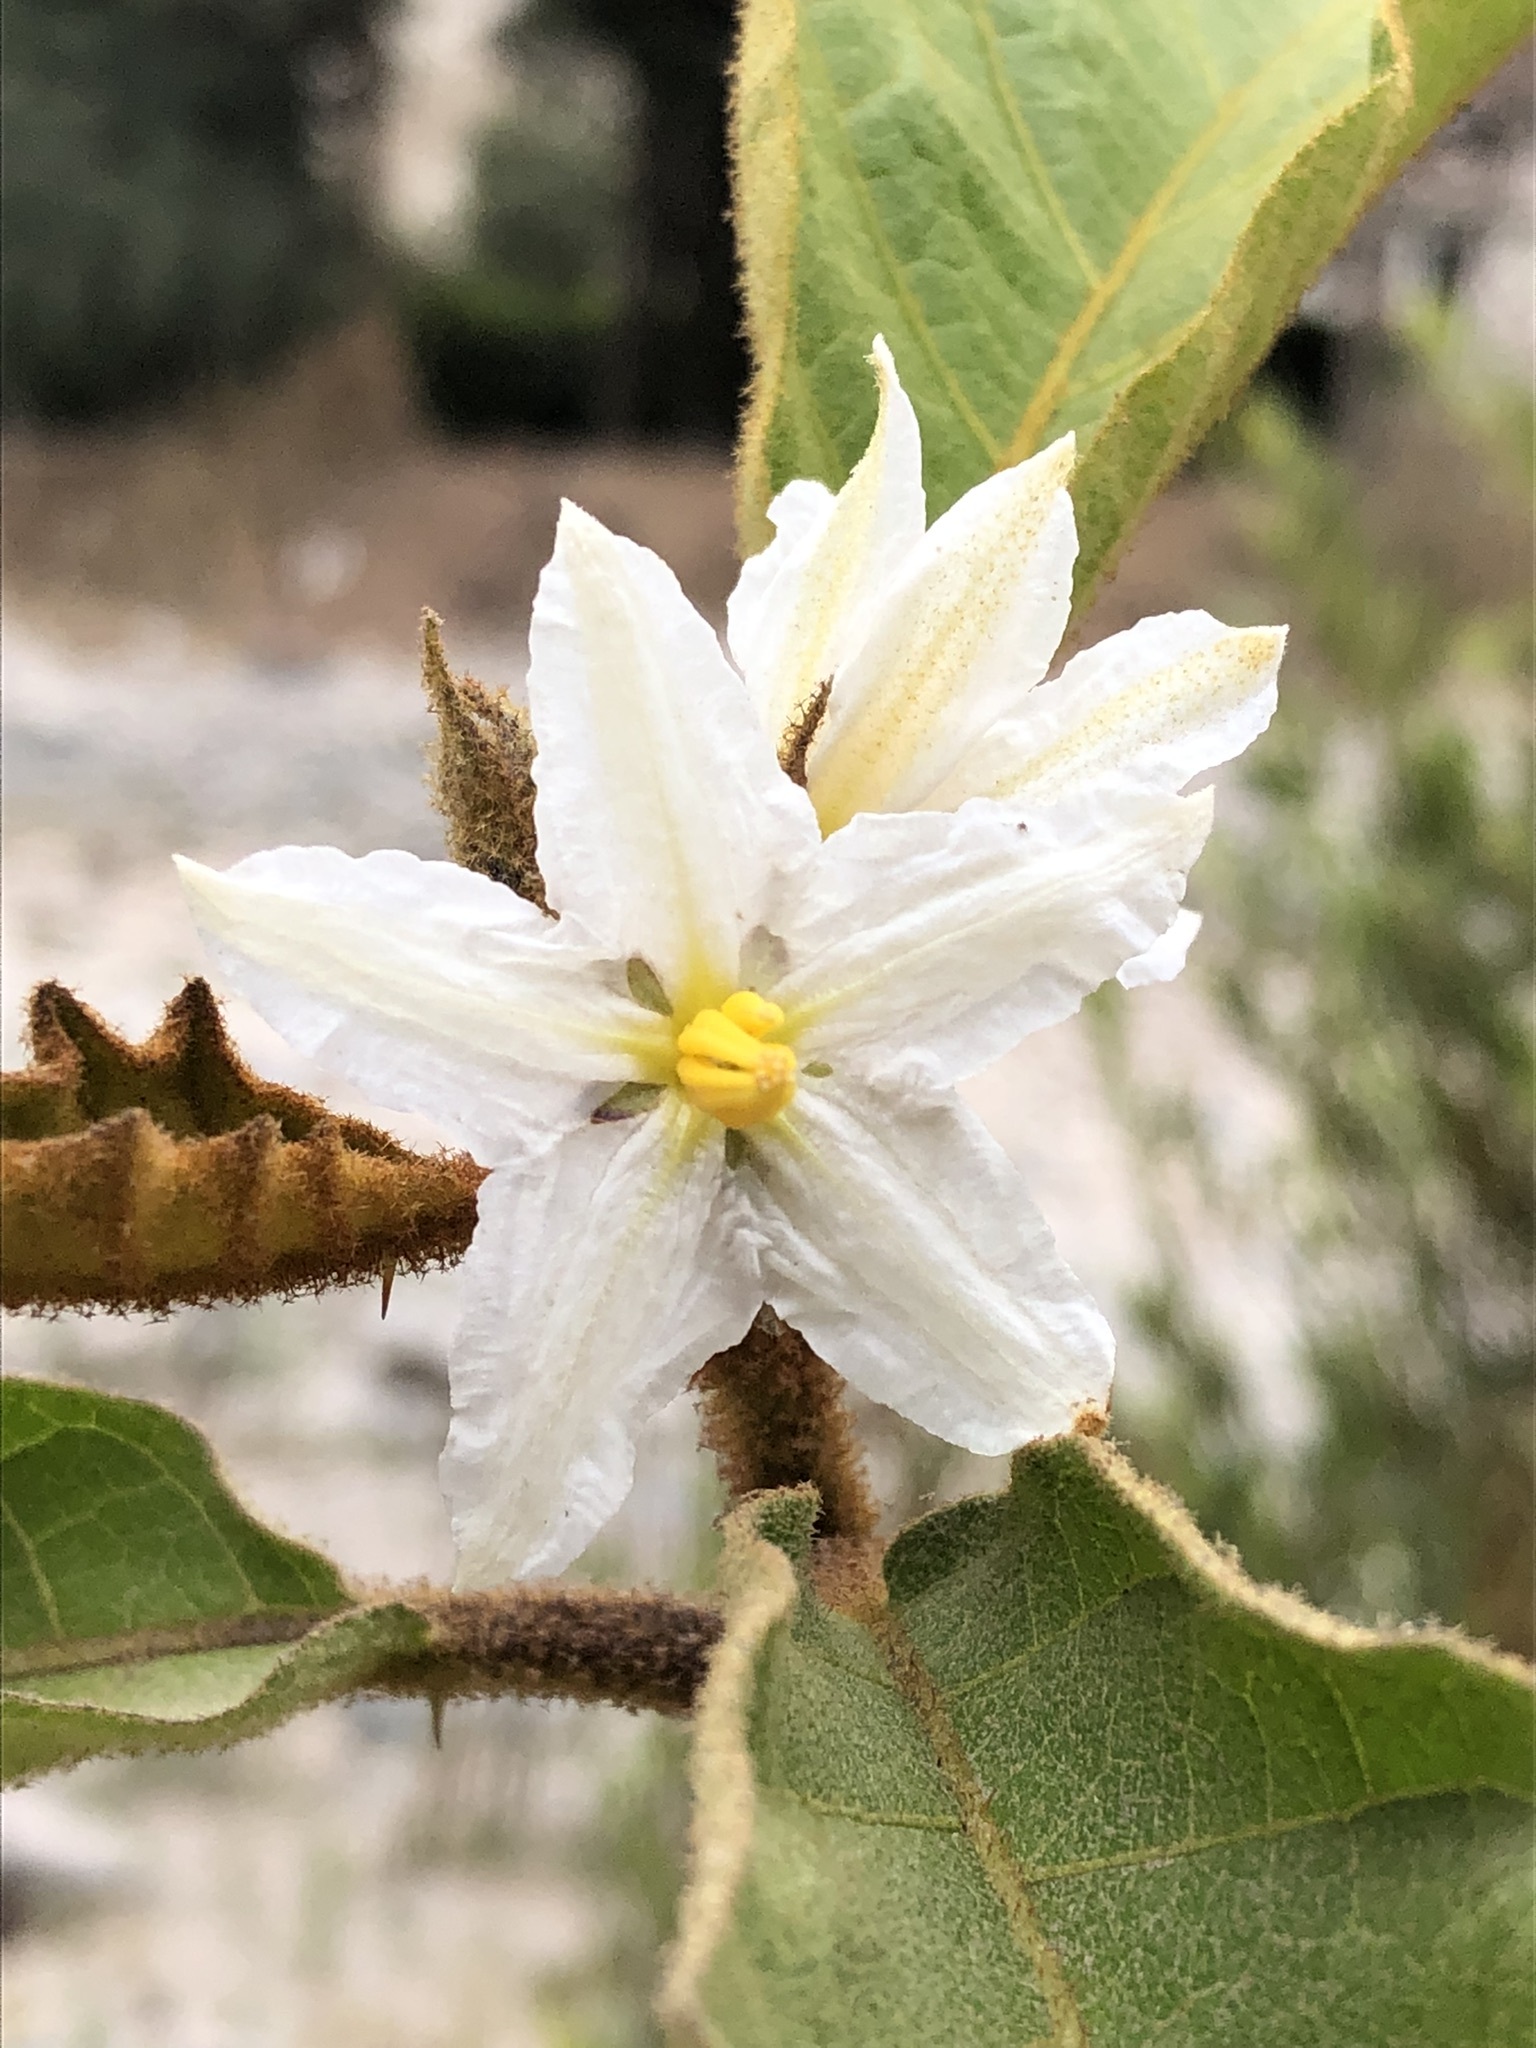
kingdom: Plantae
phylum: Tracheophyta
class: Magnoliopsida
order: Solanales
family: Solanaceae
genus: Solanum
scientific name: Solanum chrysotrichum
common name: Nightshade
